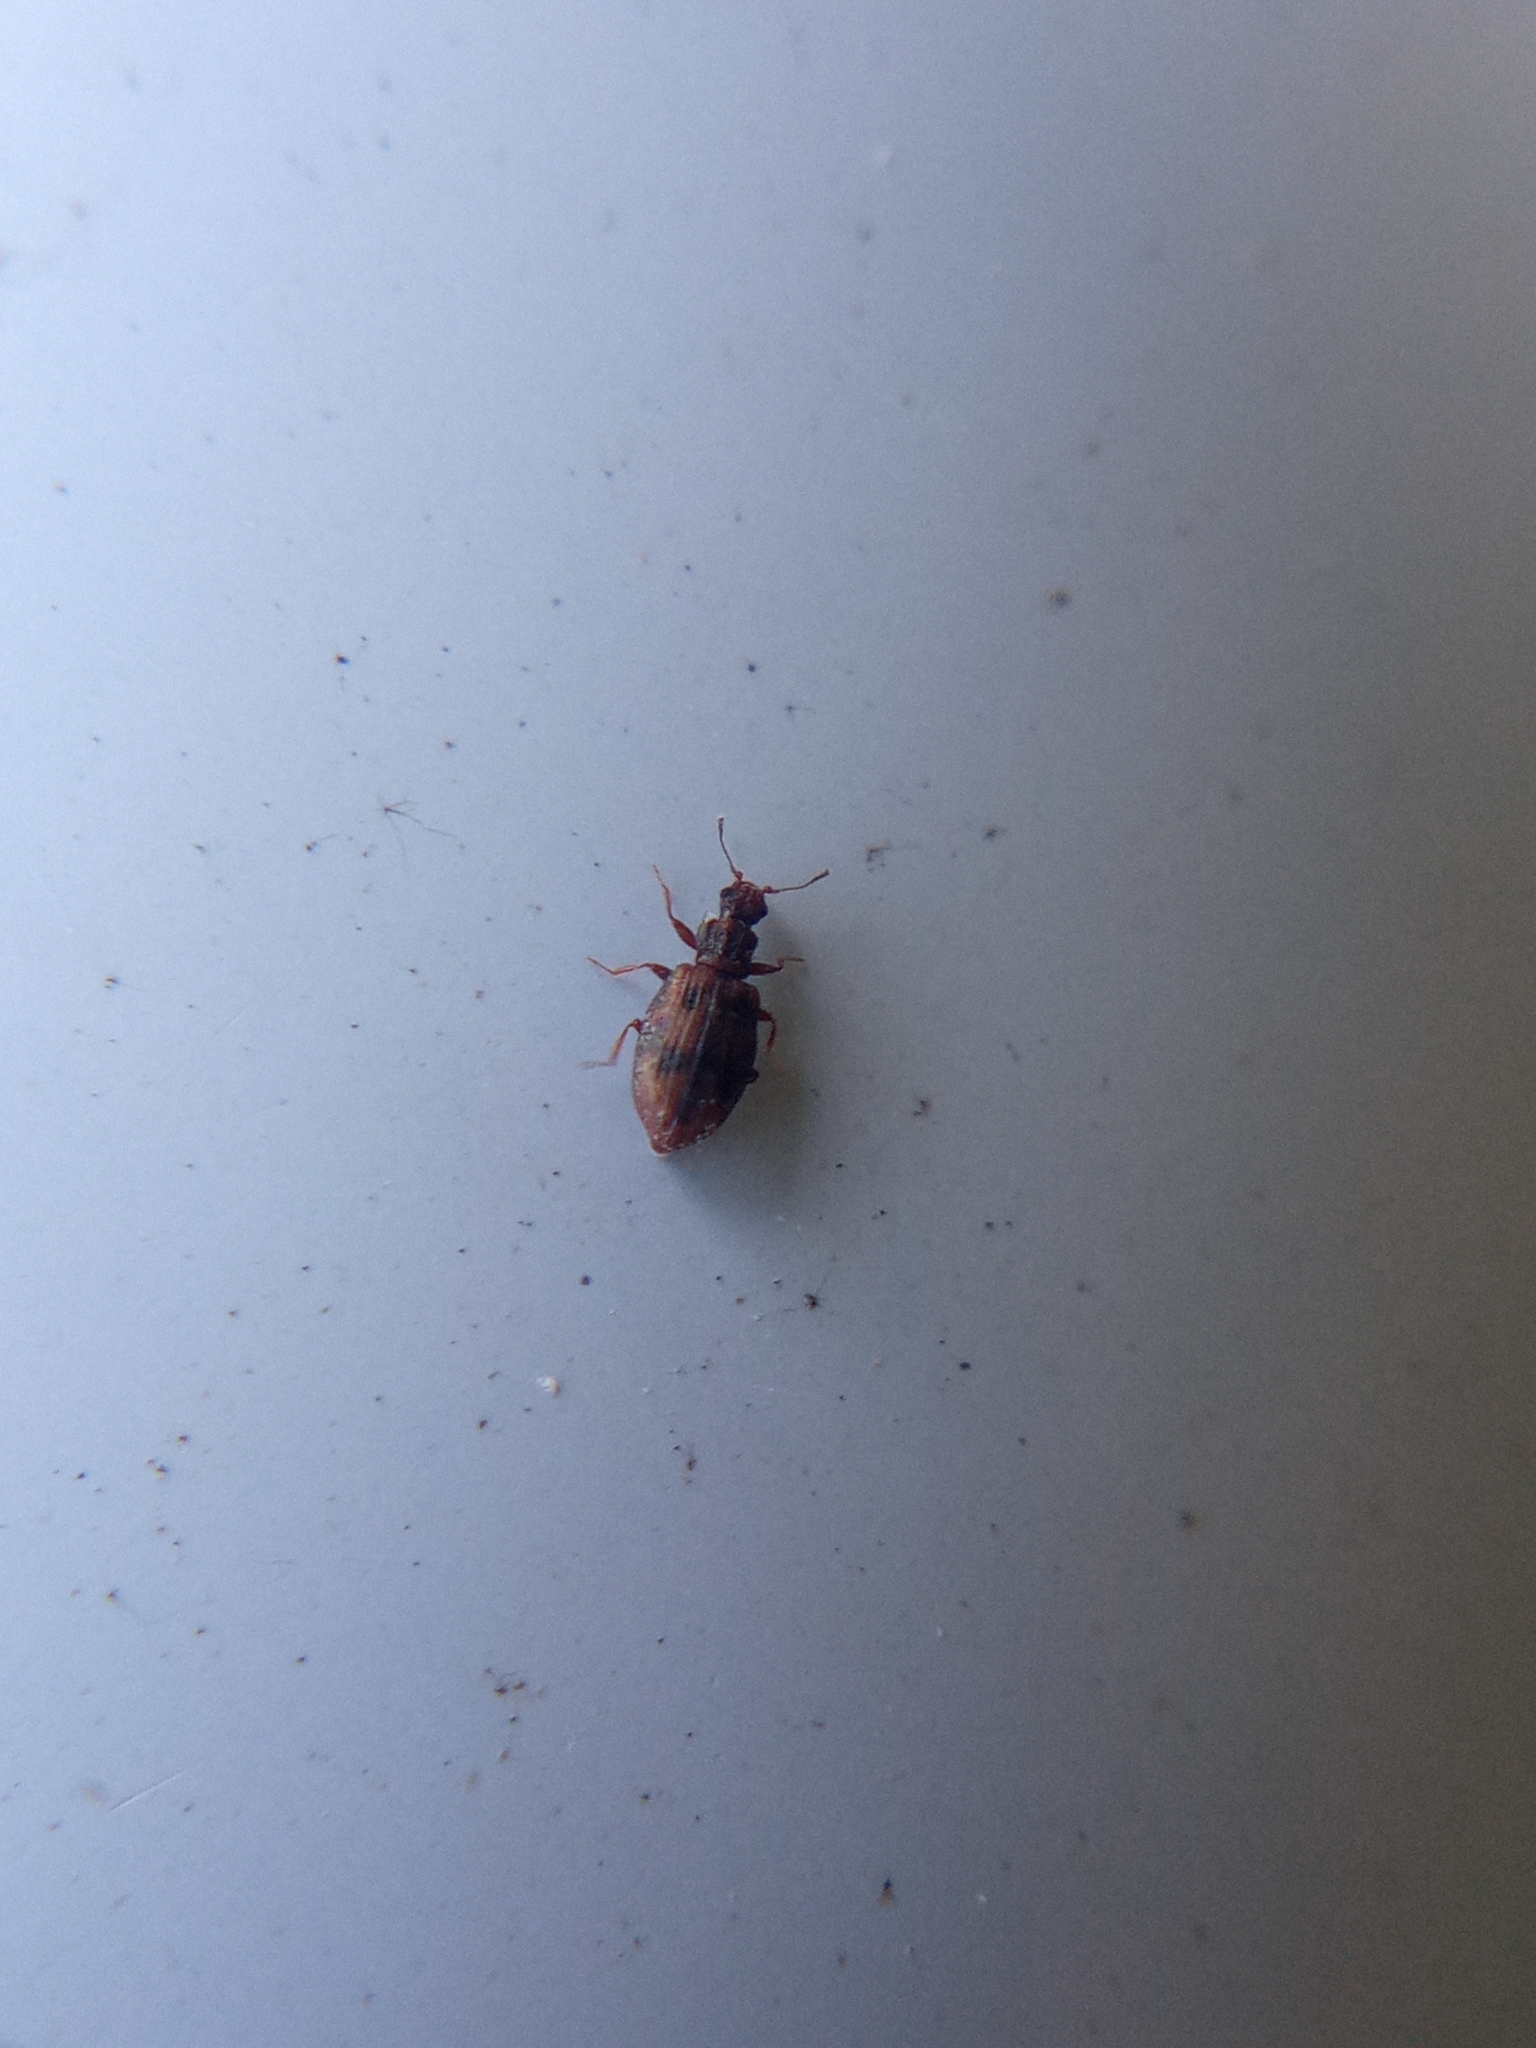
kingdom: Animalia
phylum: Arthropoda
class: Insecta
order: Coleoptera
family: Latridiidae
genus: Cartodere
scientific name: Cartodere bifasciata
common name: Plaster beetle
